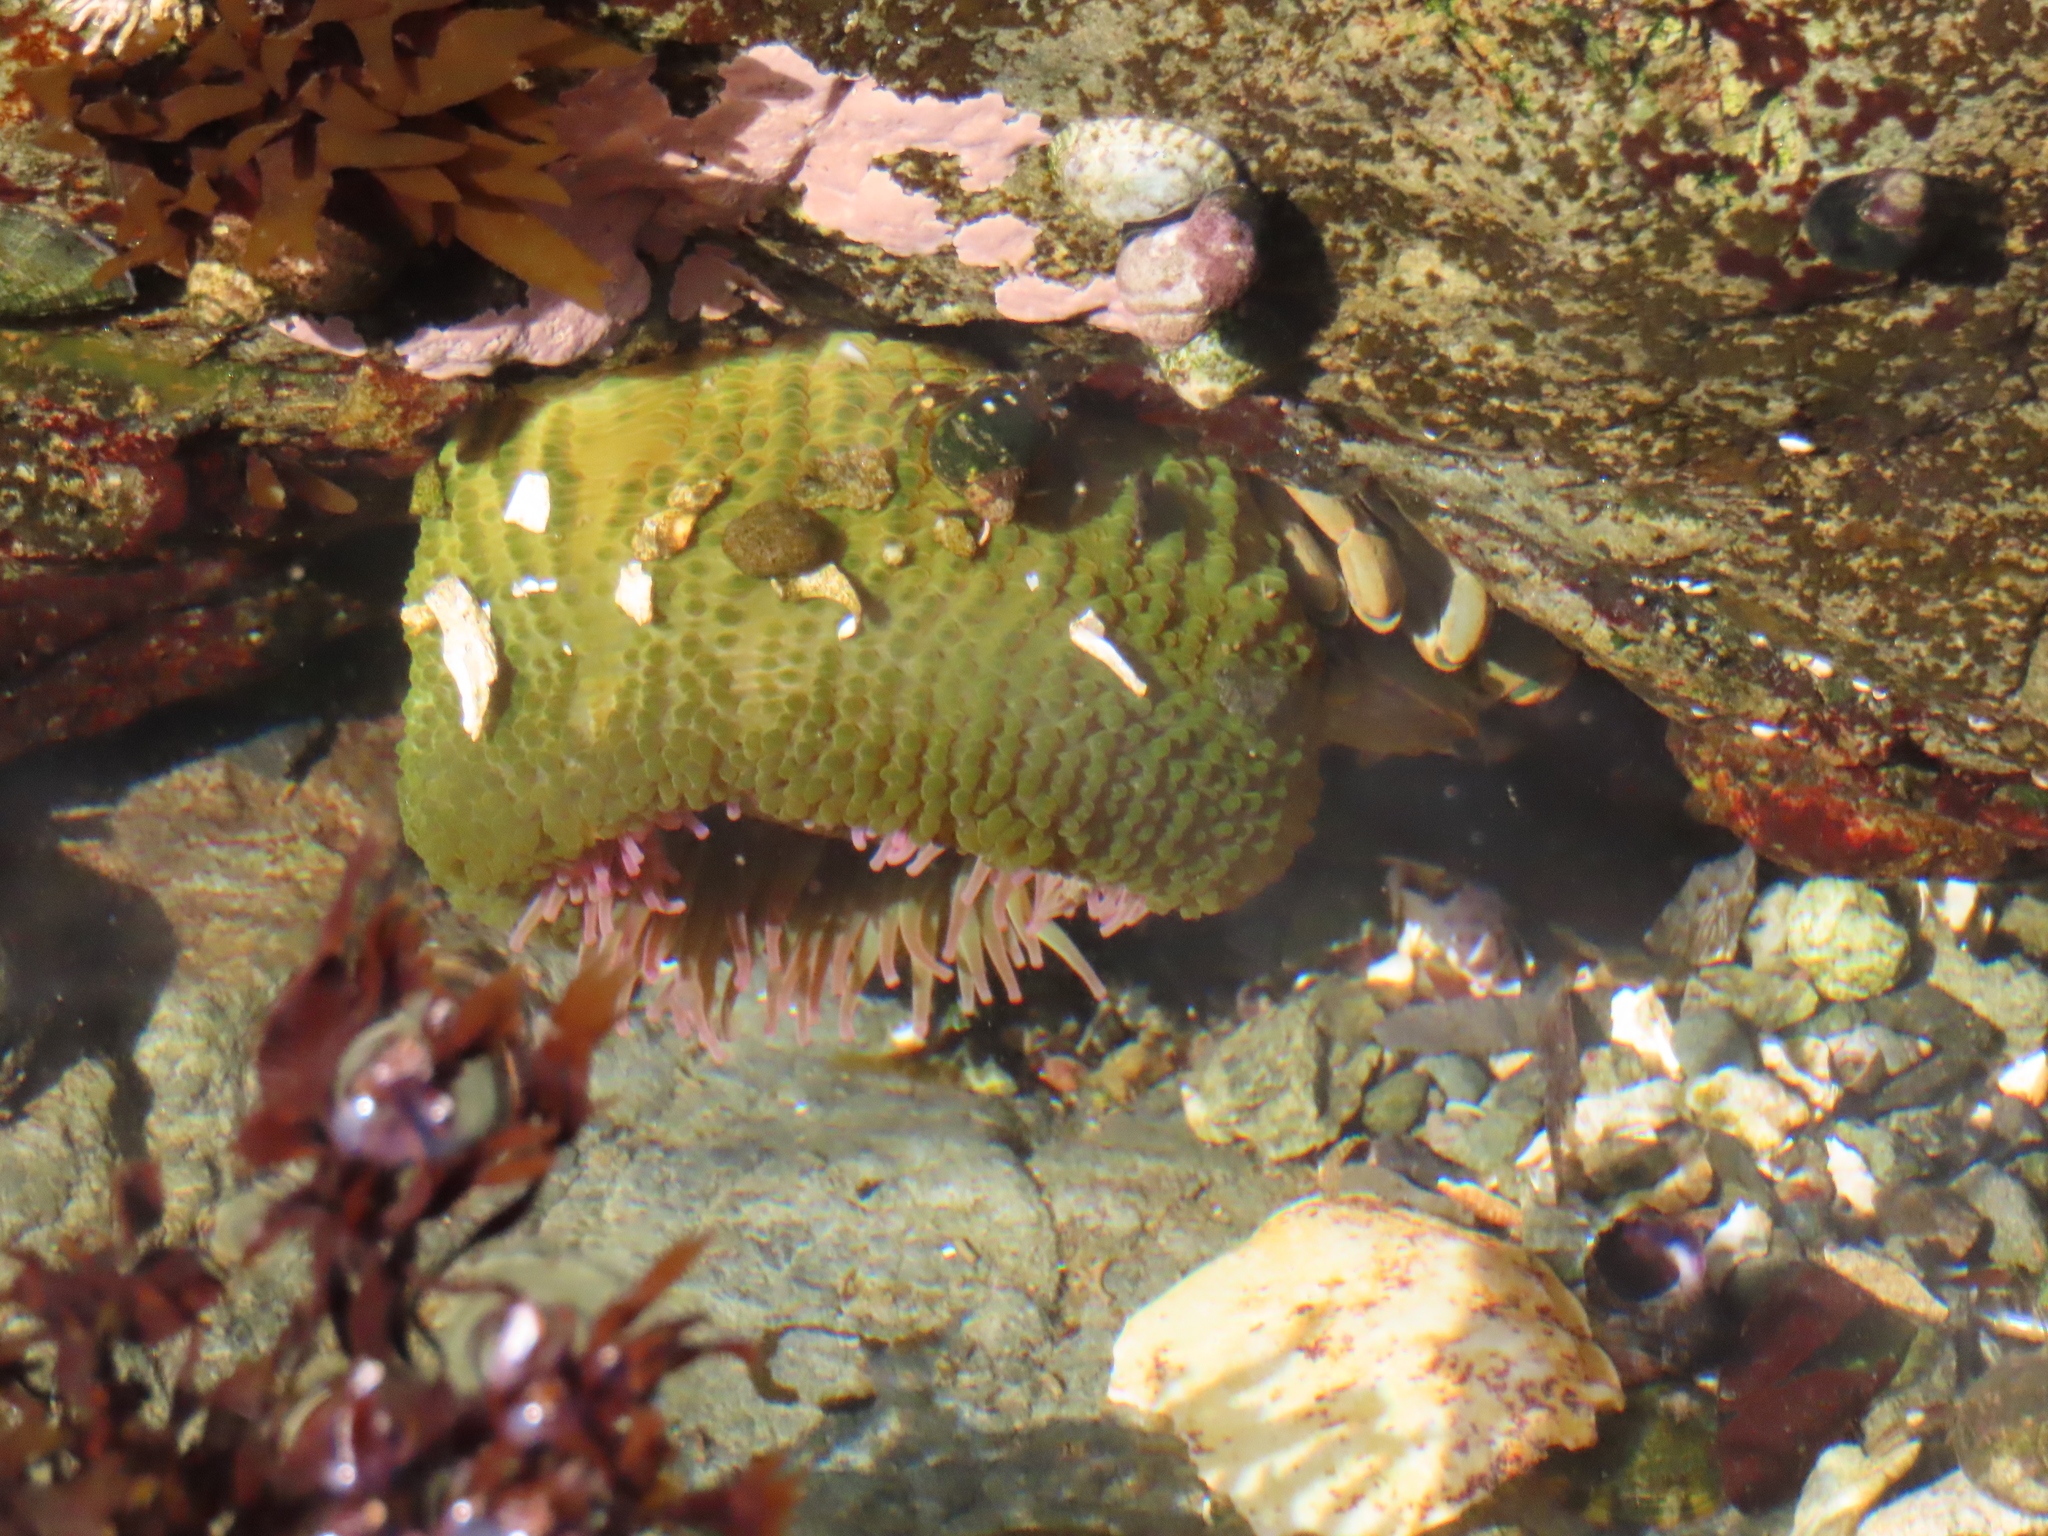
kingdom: Animalia
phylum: Cnidaria
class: Anthozoa
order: Actiniaria
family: Actiniidae
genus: Anthopleura
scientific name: Anthopleura elegantissima
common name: Clonal anemone
